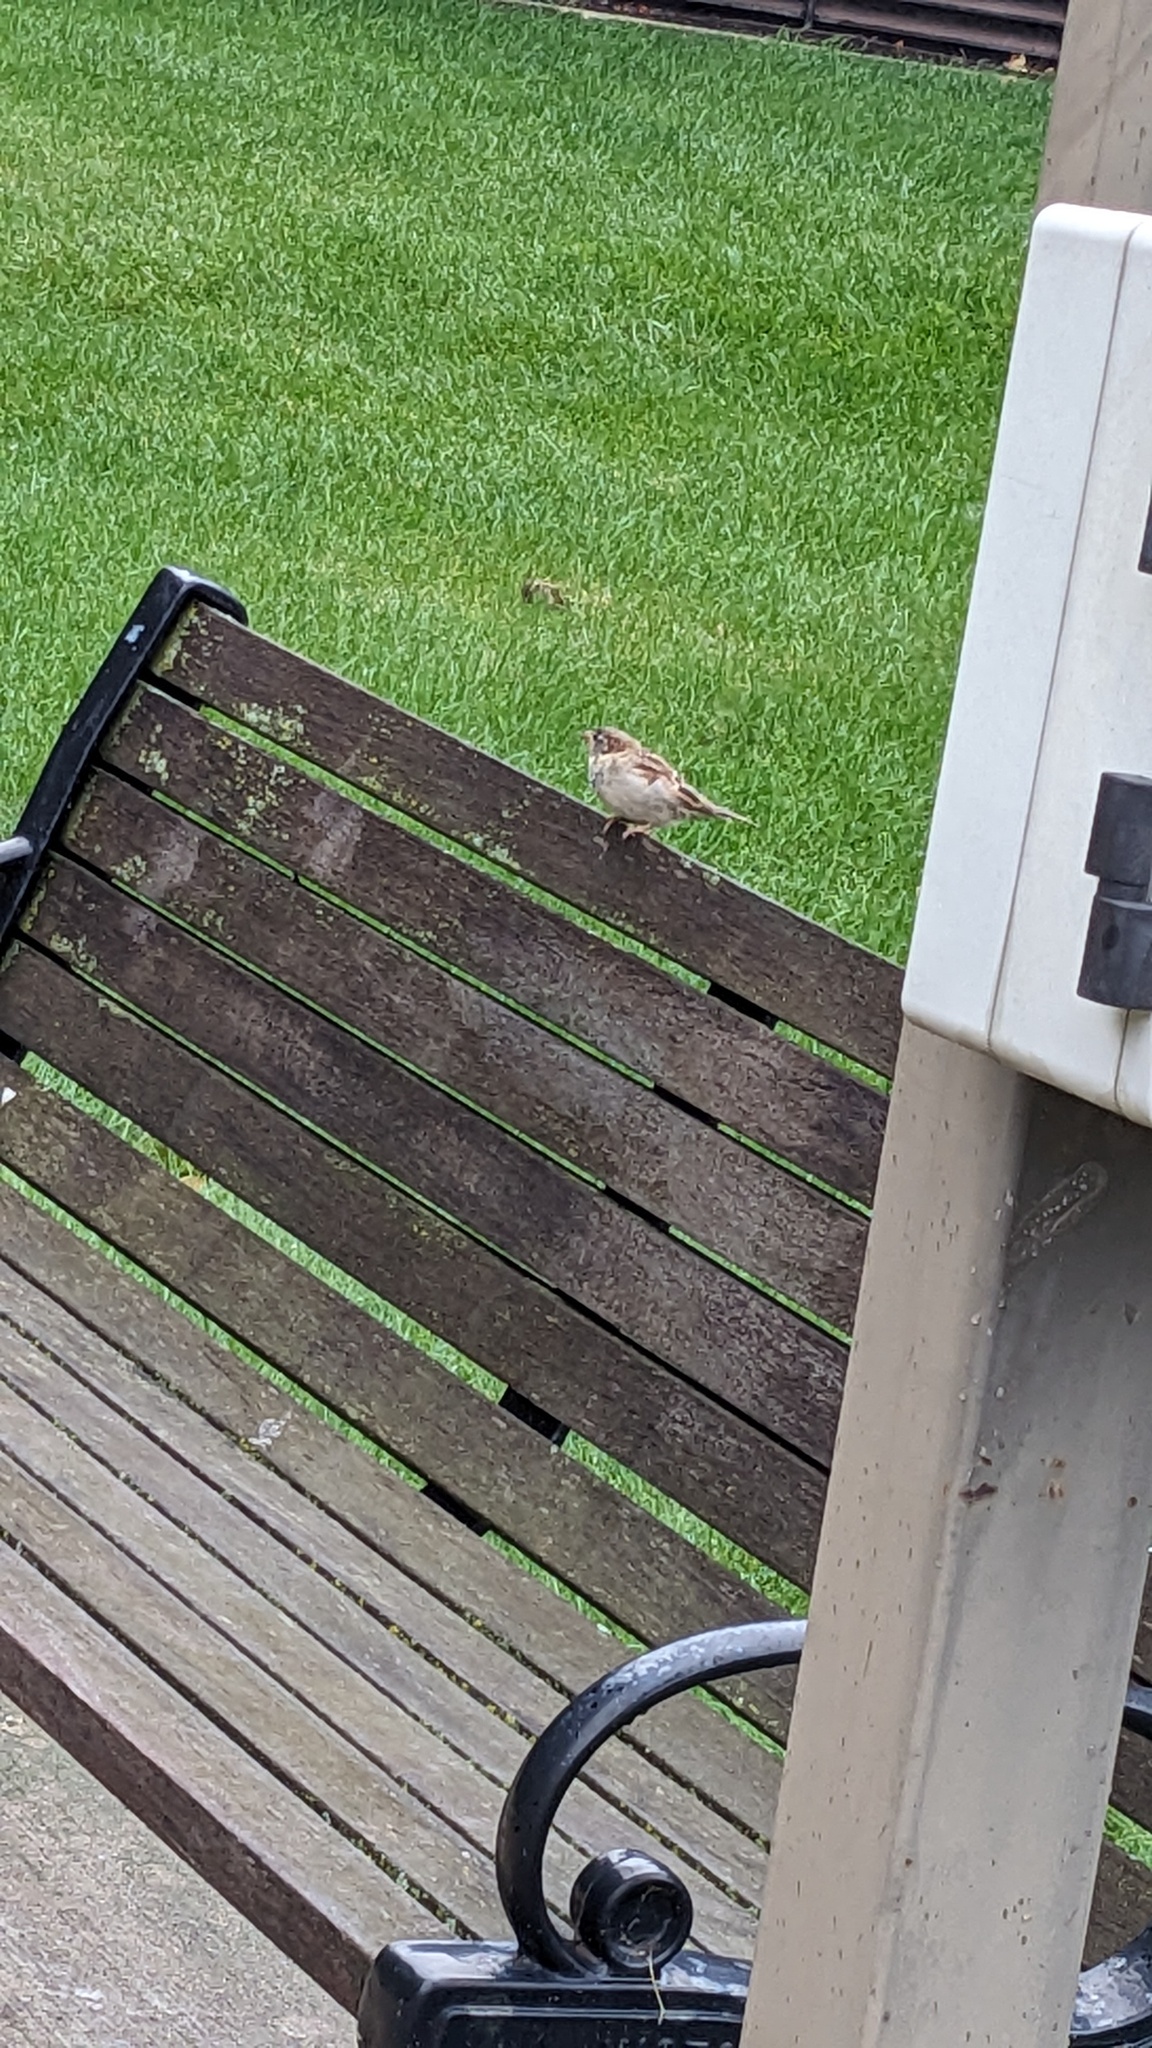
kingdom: Animalia
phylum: Chordata
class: Aves
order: Passeriformes
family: Passeridae
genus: Passer
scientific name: Passer domesticus
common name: House sparrow
